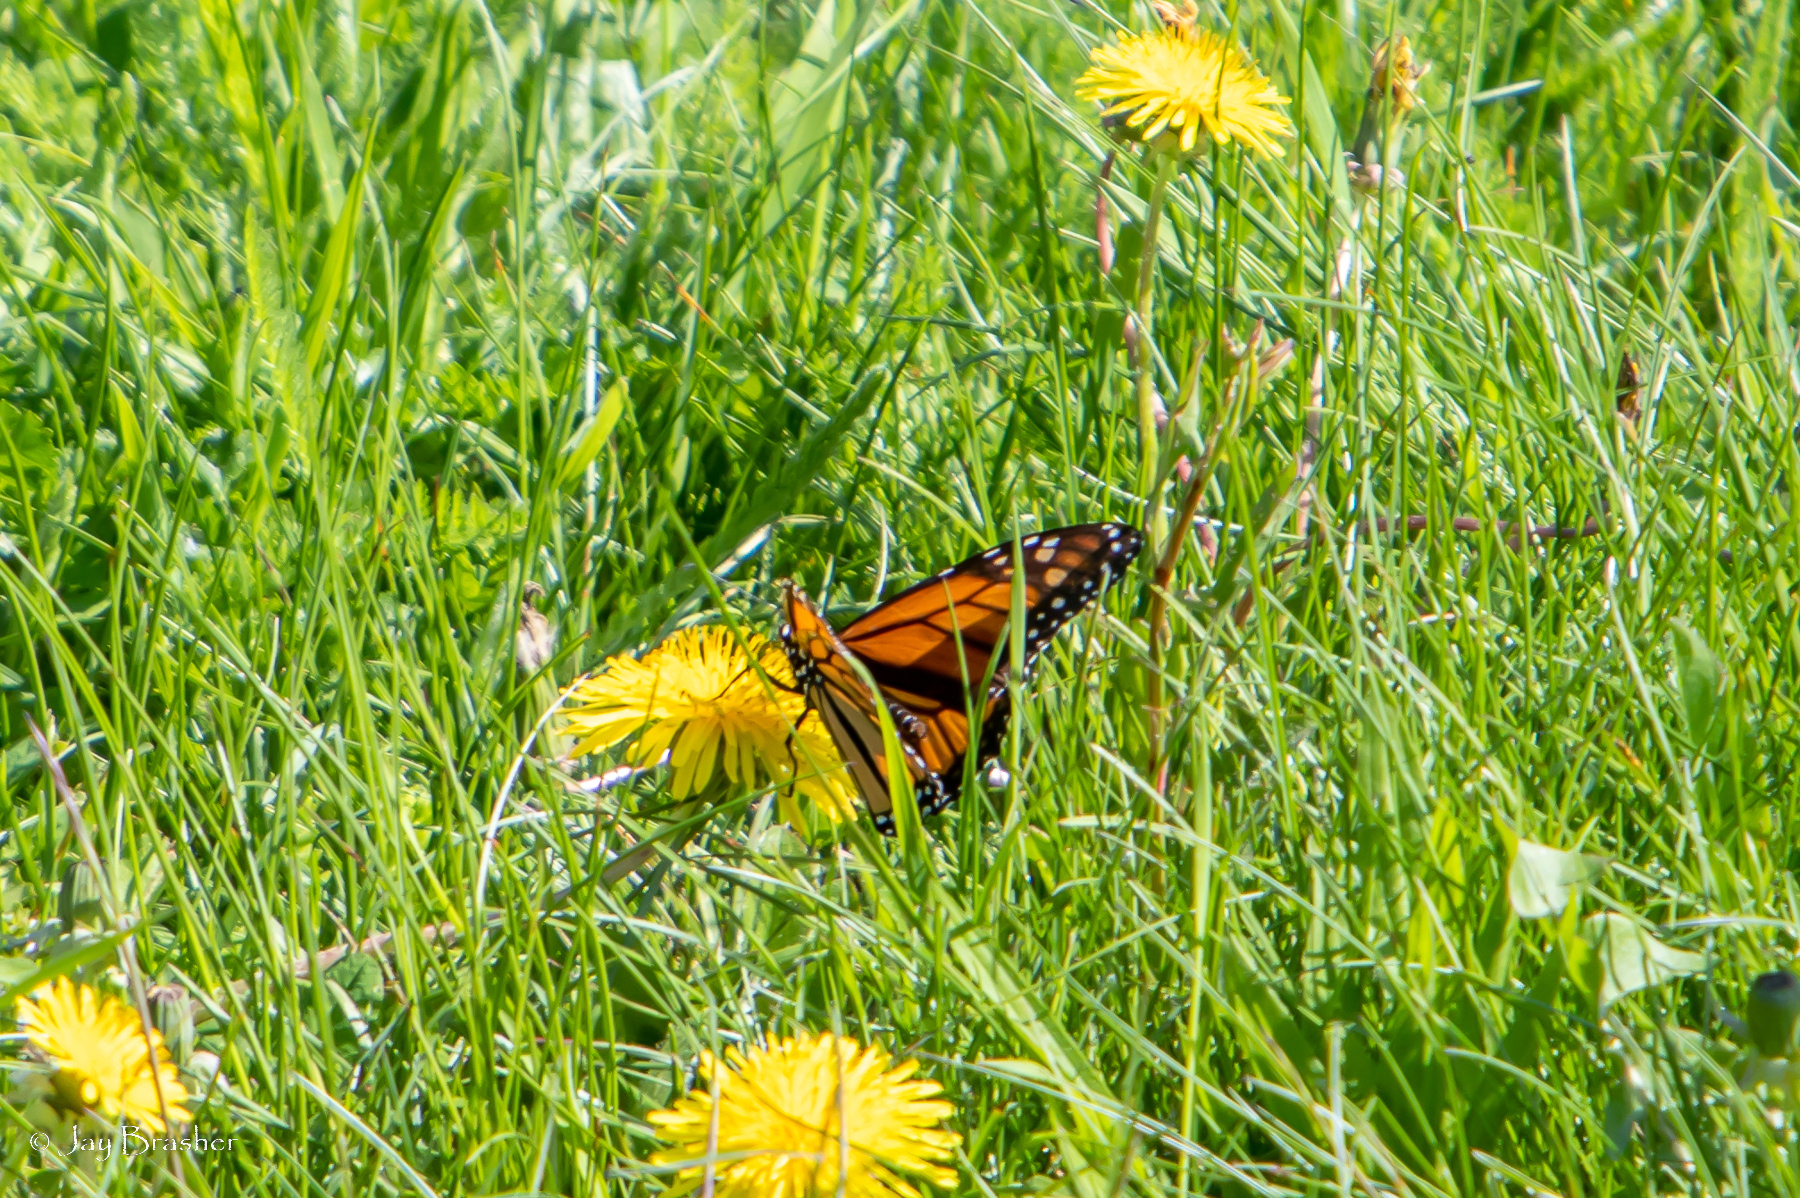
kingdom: Animalia
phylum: Arthropoda
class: Insecta
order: Lepidoptera
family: Nymphalidae
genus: Danaus
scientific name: Danaus plexippus
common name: Monarch
